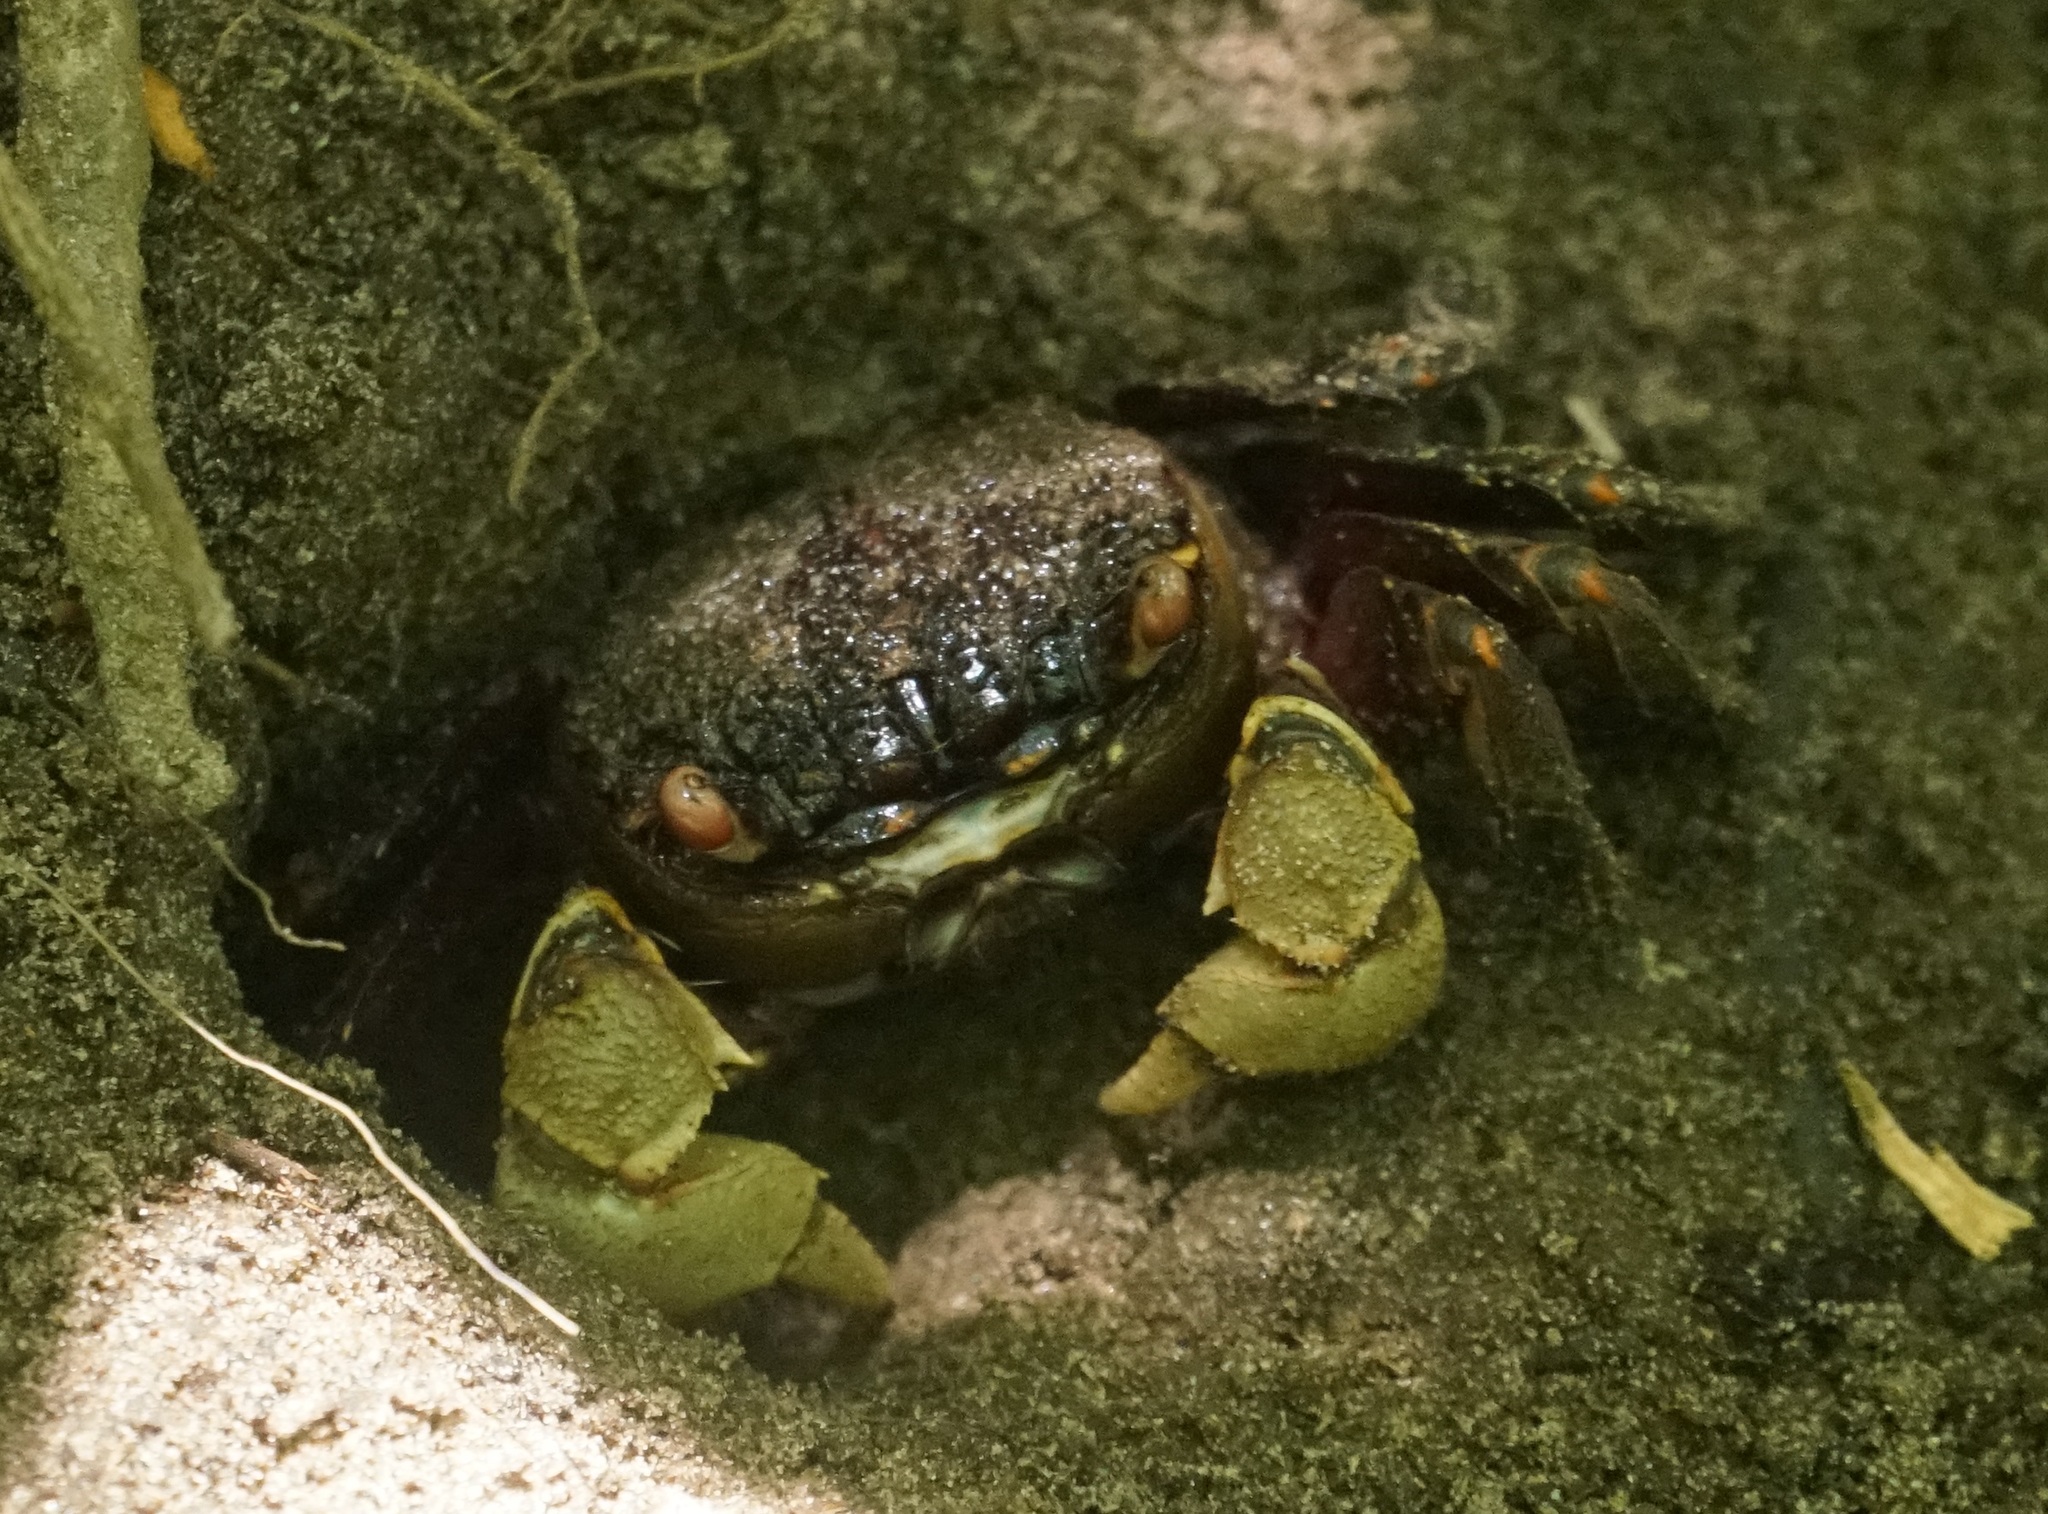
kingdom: Animalia
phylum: Arthropoda
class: Malacostraca
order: Decapoda
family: Sesarmidae
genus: Tiomanium
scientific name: Tiomanium indicum
